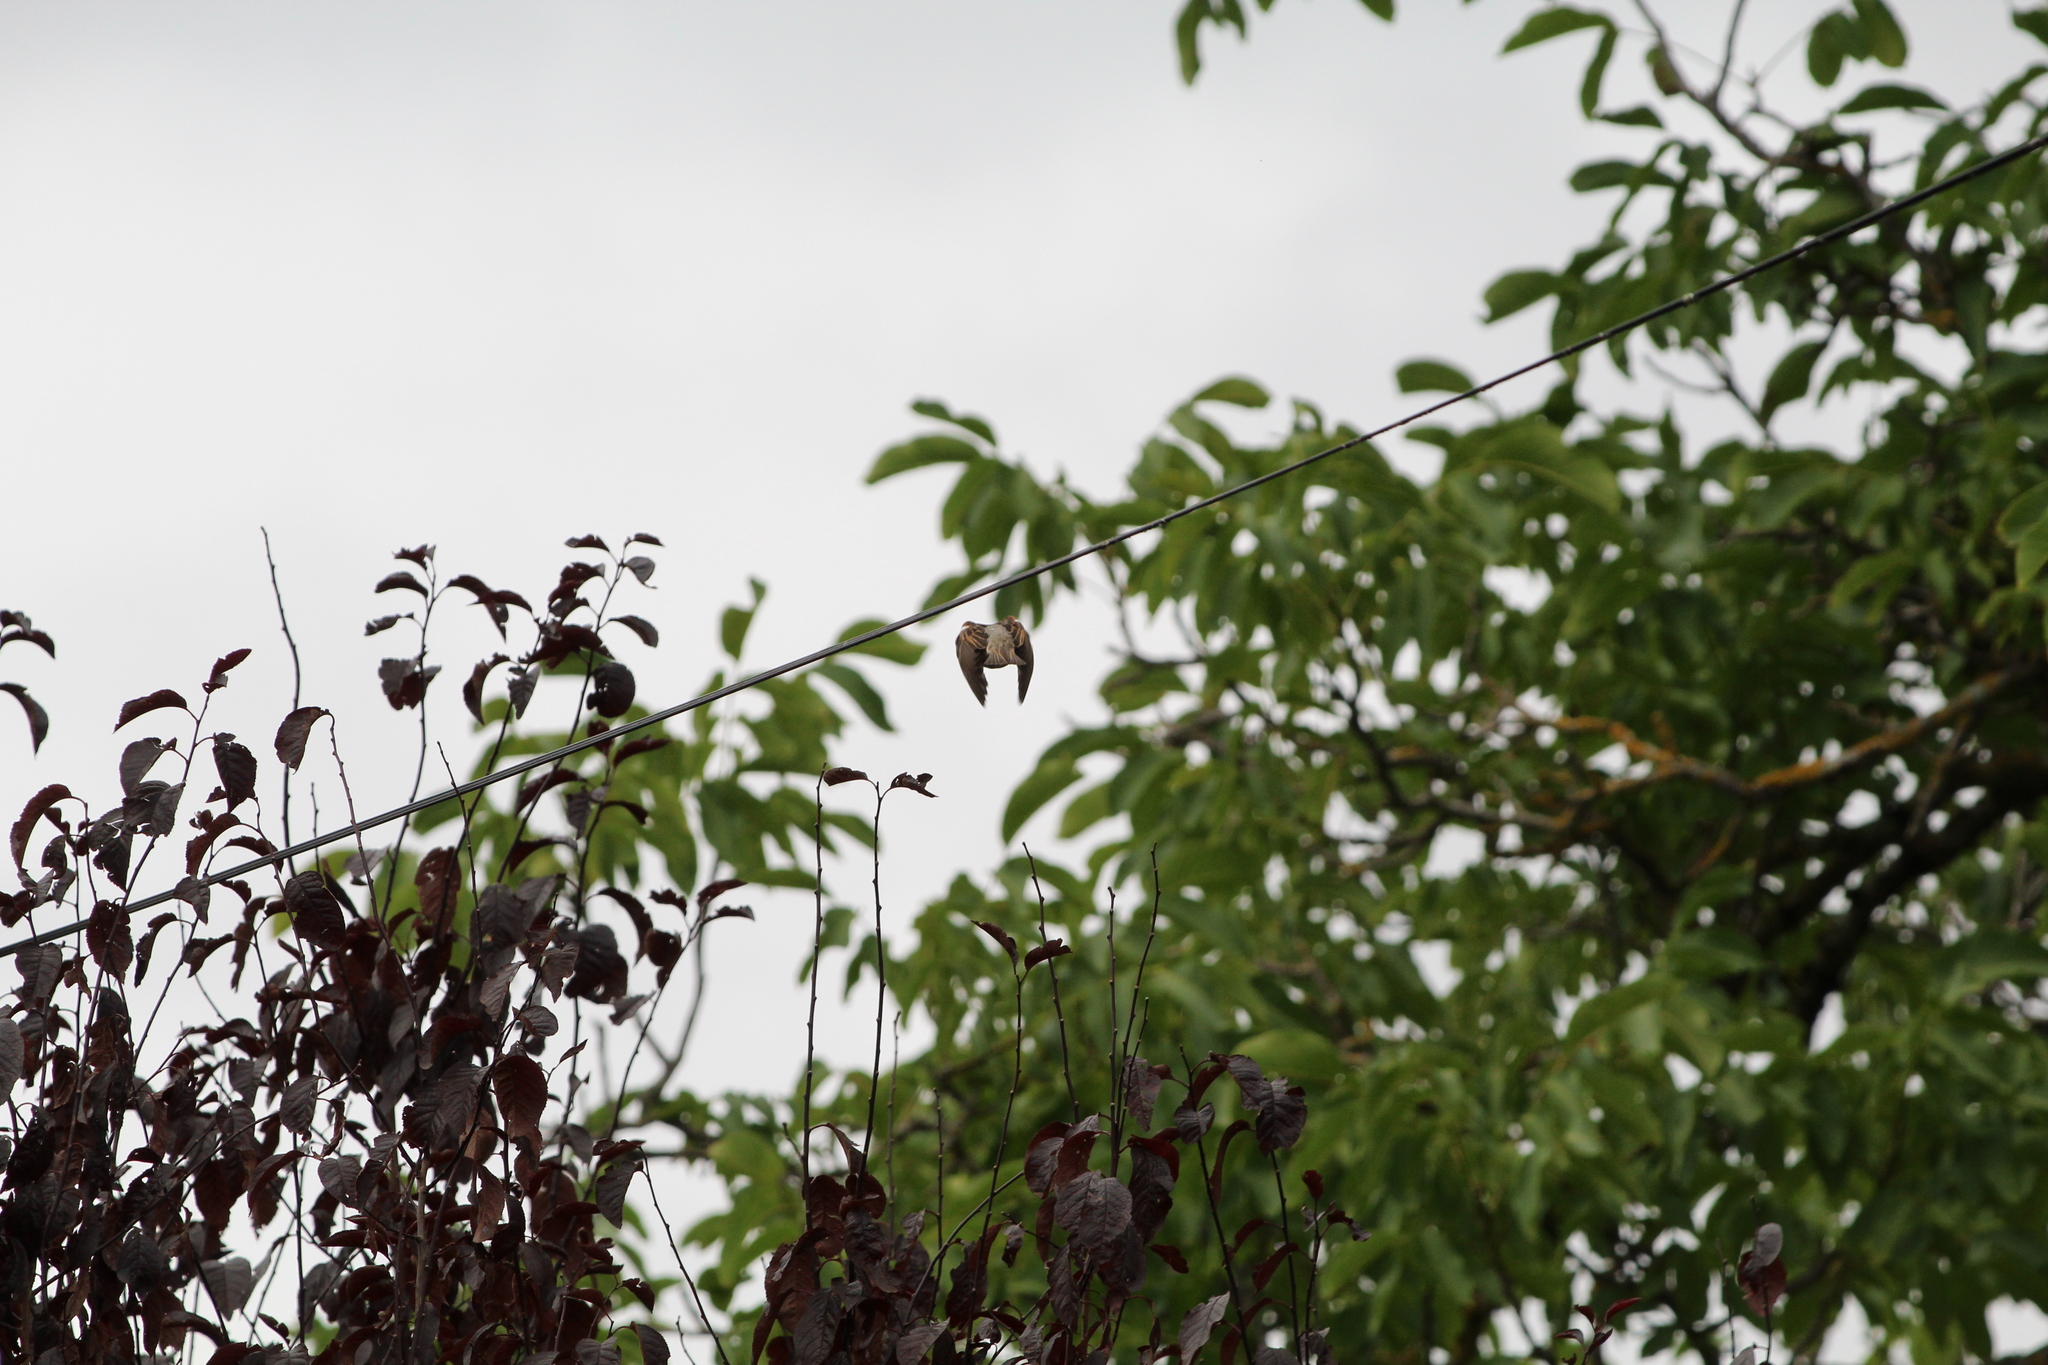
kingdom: Animalia
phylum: Chordata
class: Aves
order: Passeriformes
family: Passeridae
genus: Passer
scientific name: Passer domesticus
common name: House sparrow
